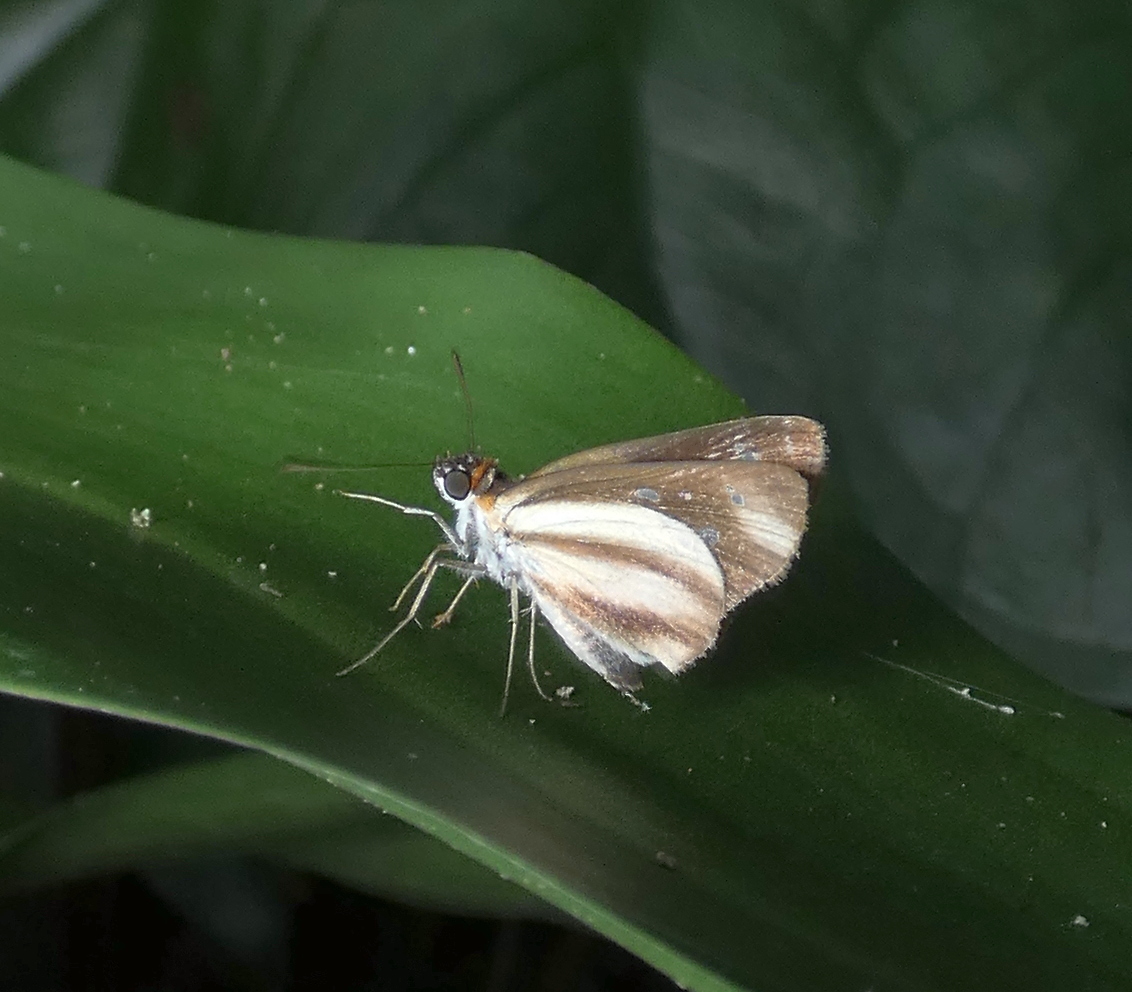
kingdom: Animalia
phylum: Arthropoda
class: Insecta
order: Lepidoptera
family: Hesperiidae
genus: Vettius
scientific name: Vettius marcus
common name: Marcus skipper
